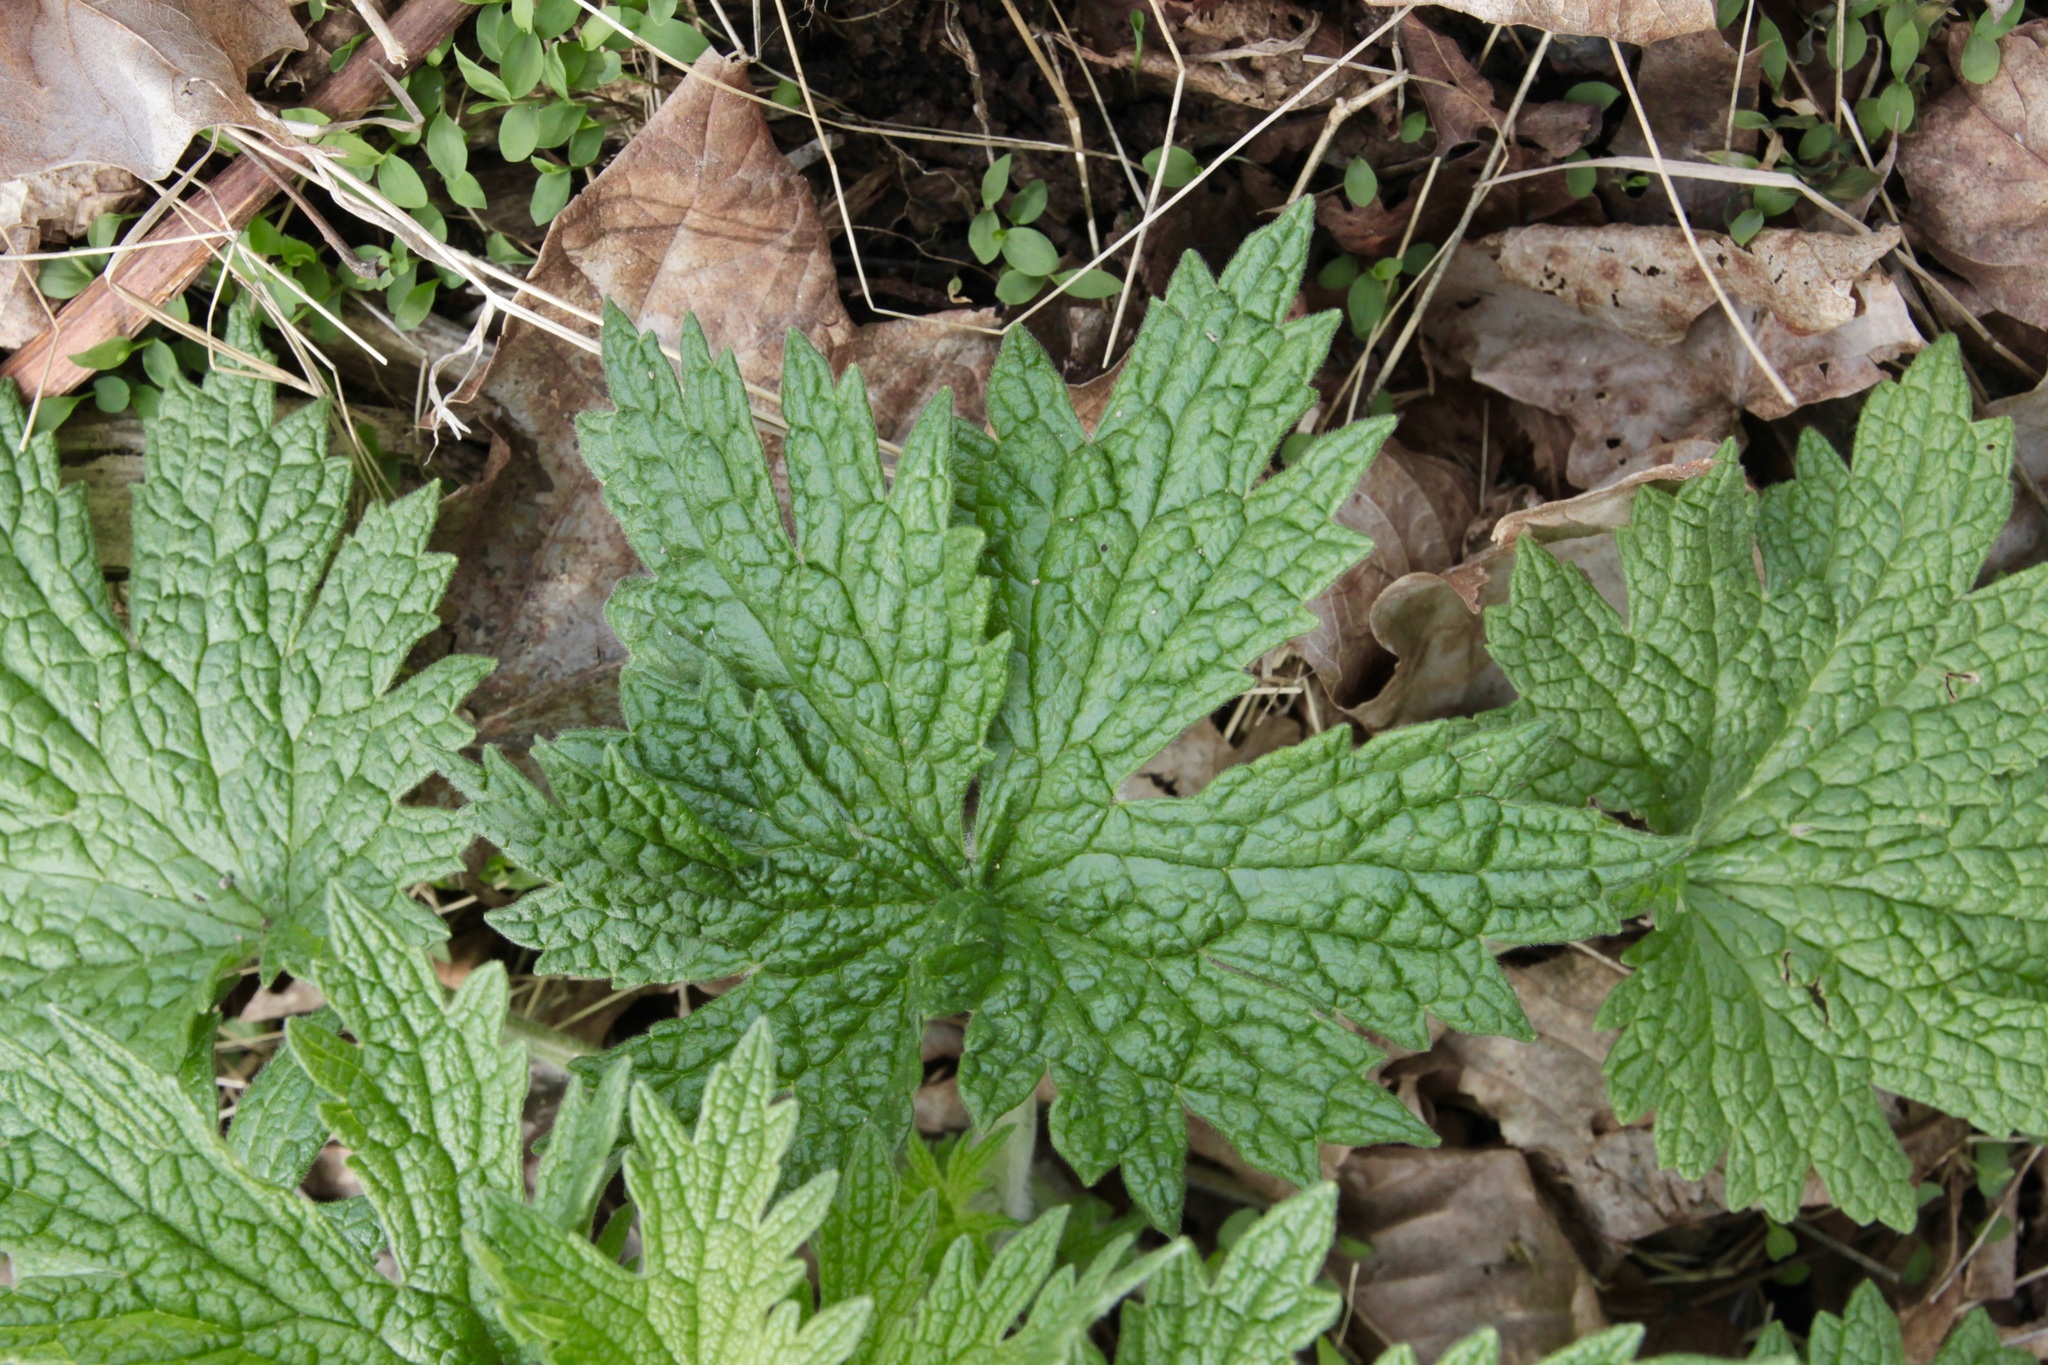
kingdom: Plantae
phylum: Tracheophyta
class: Magnoliopsida
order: Lamiales
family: Lamiaceae
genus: Leonurus
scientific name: Leonurus cardiaca
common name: Motherwort
